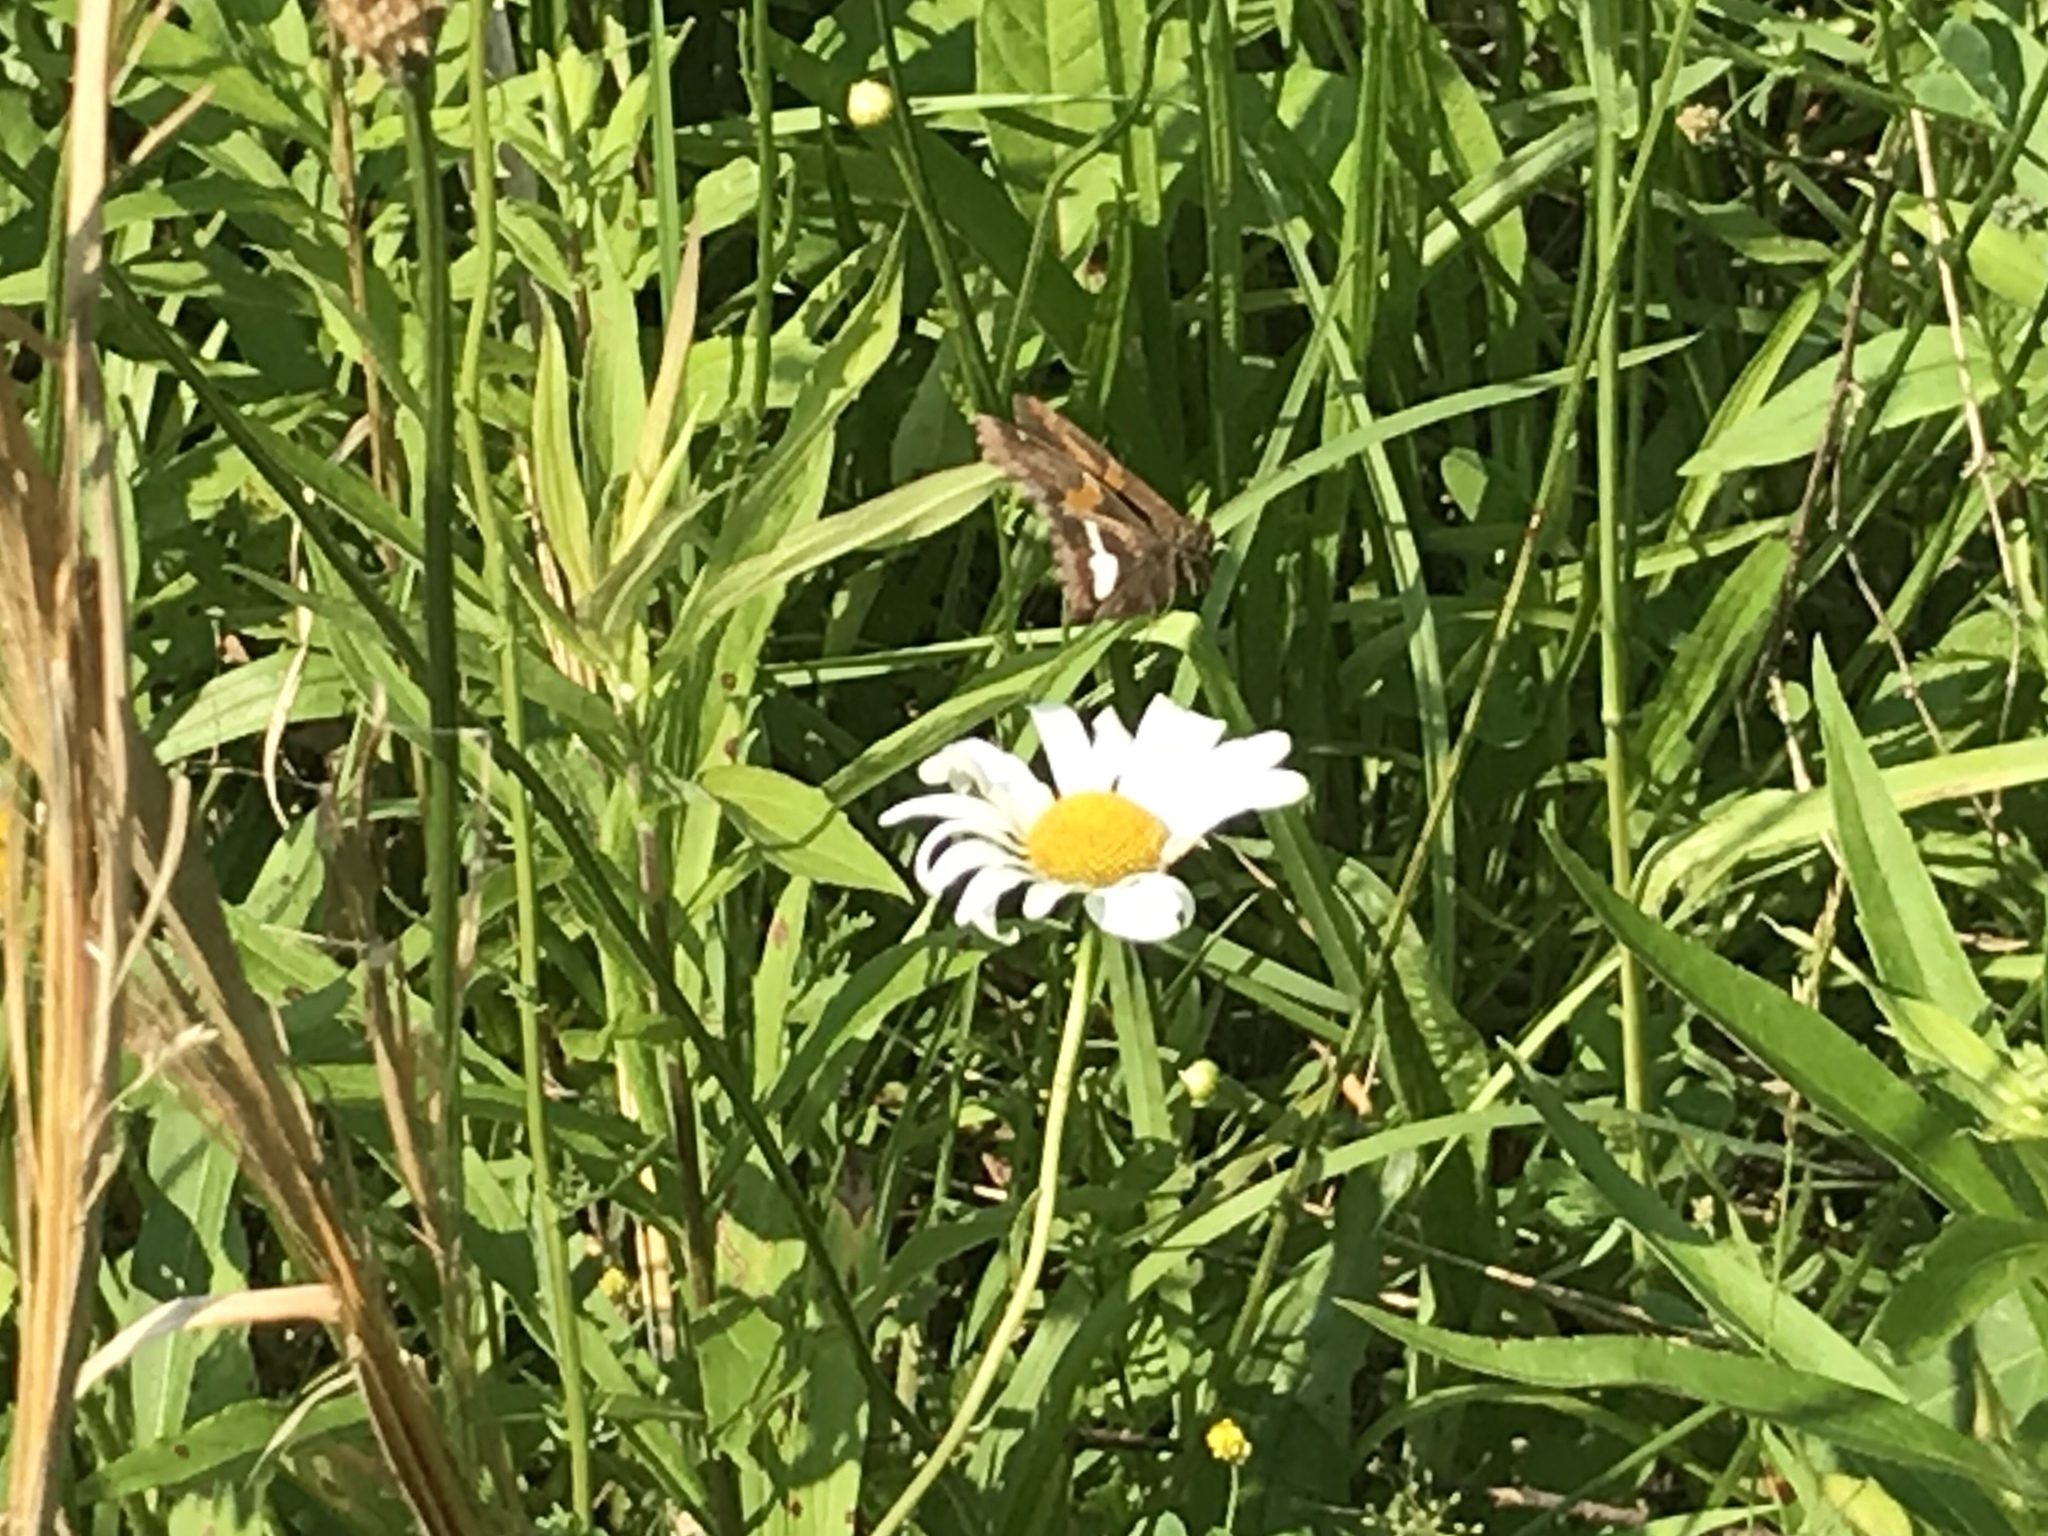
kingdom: Animalia
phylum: Arthropoda
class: Insecta
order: Lepidoptera
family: Hesperiidae
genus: Epargyreus
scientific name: Epargyreus clarus
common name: Silver-spotted skipper
